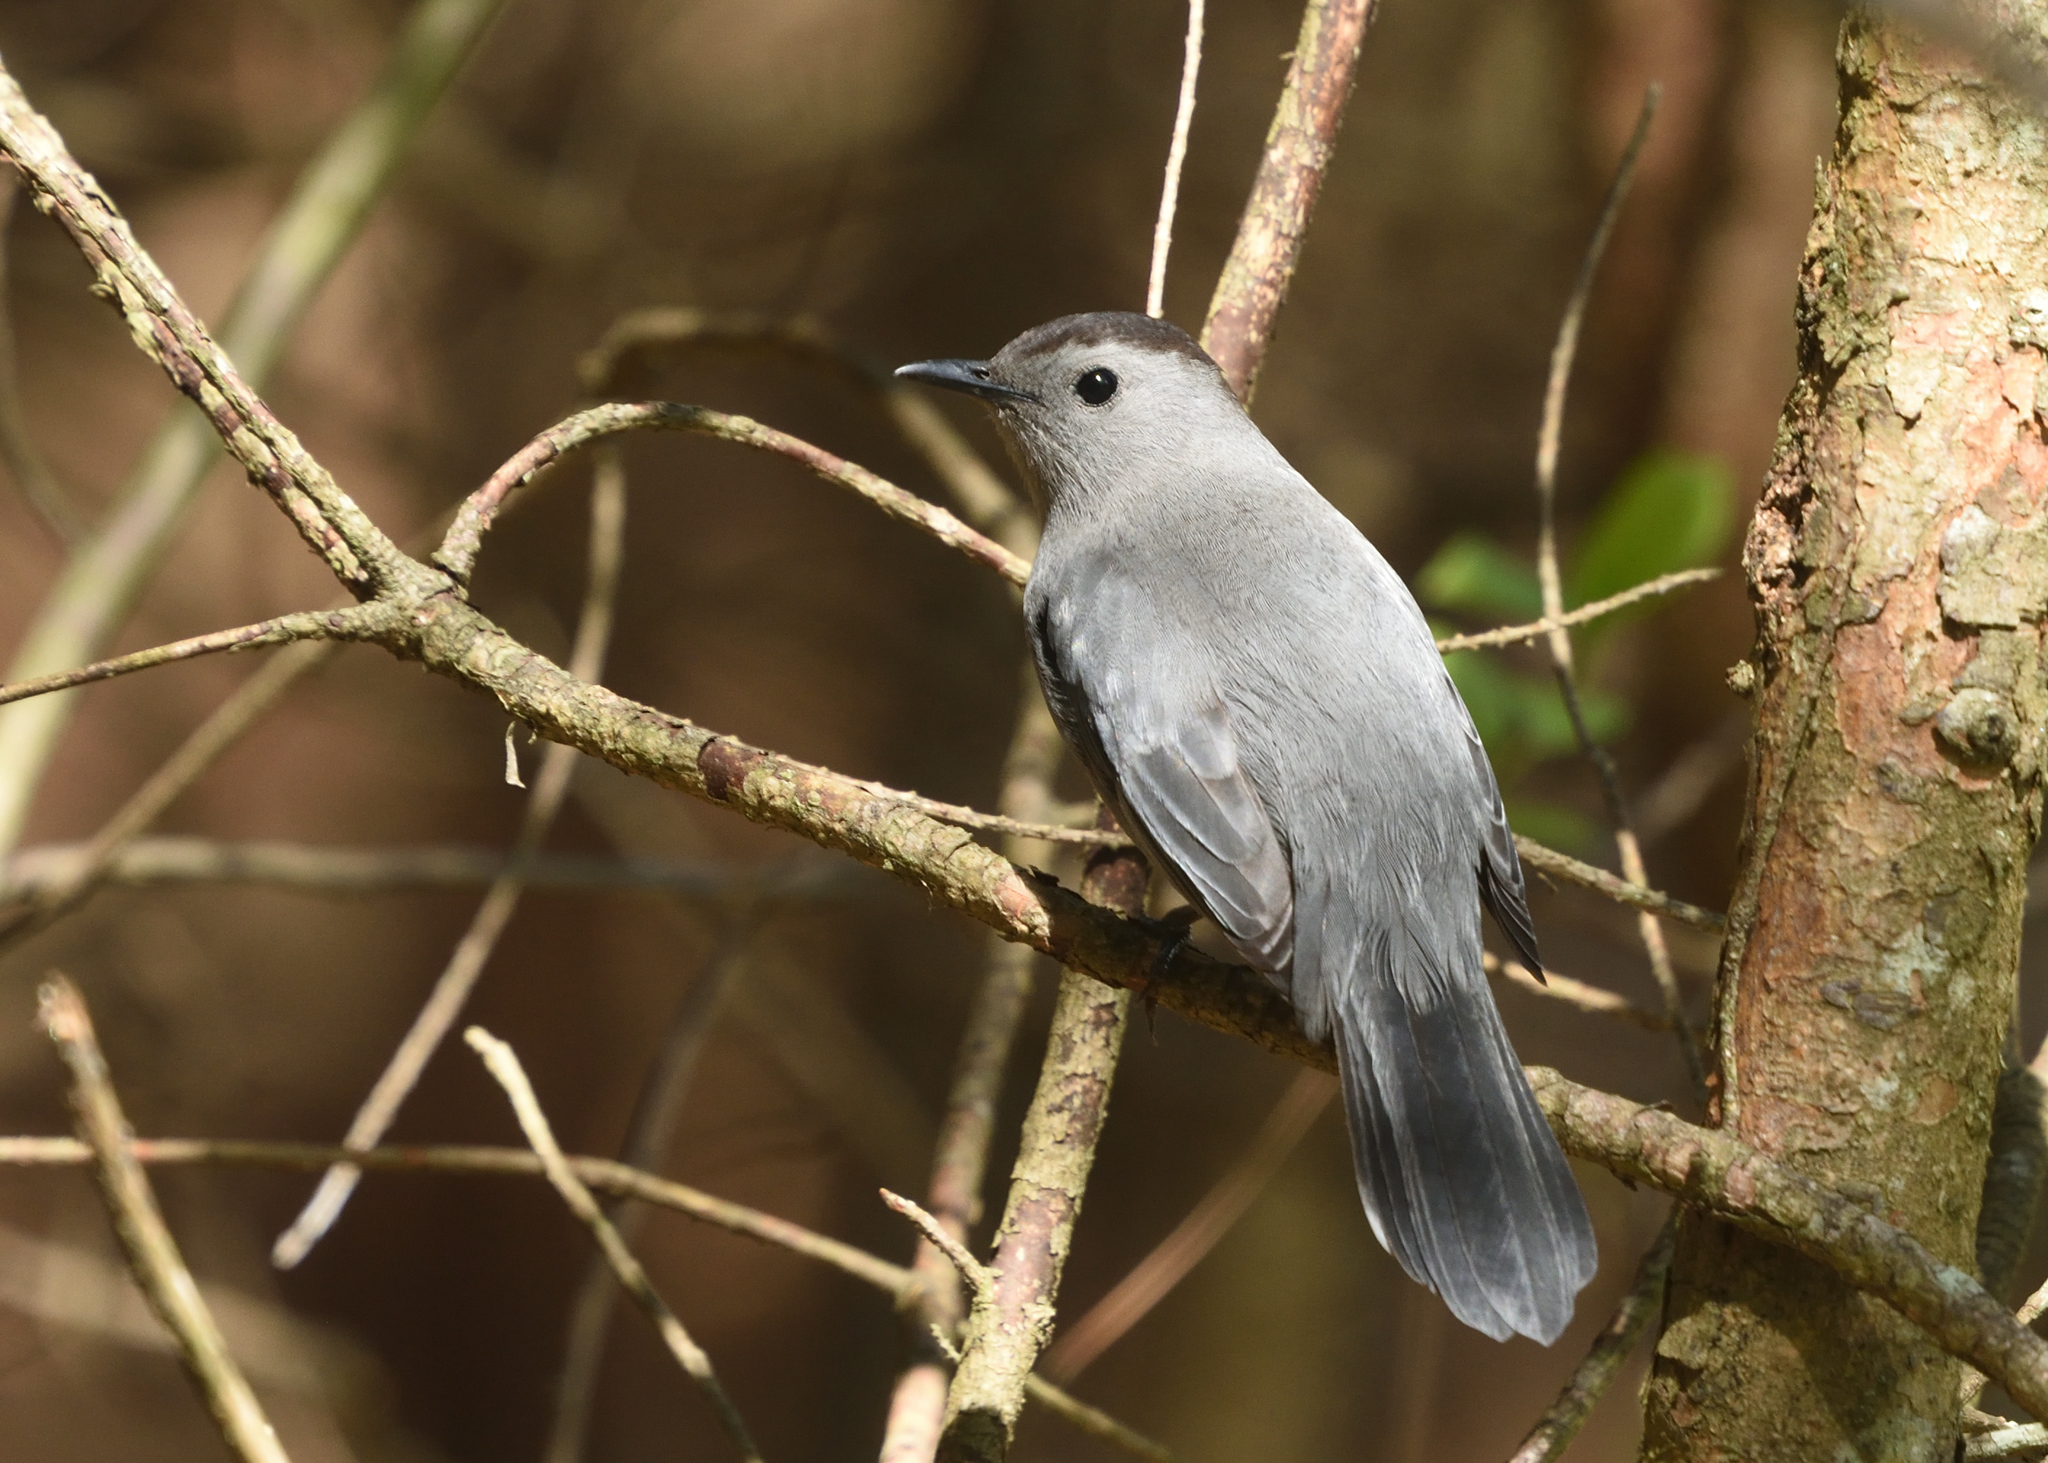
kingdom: Animalia
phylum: Chordata
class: Aves
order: Passeriformes
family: Mimidae
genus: Dumetella
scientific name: Dumetella carolinensis
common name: Gray catbird
